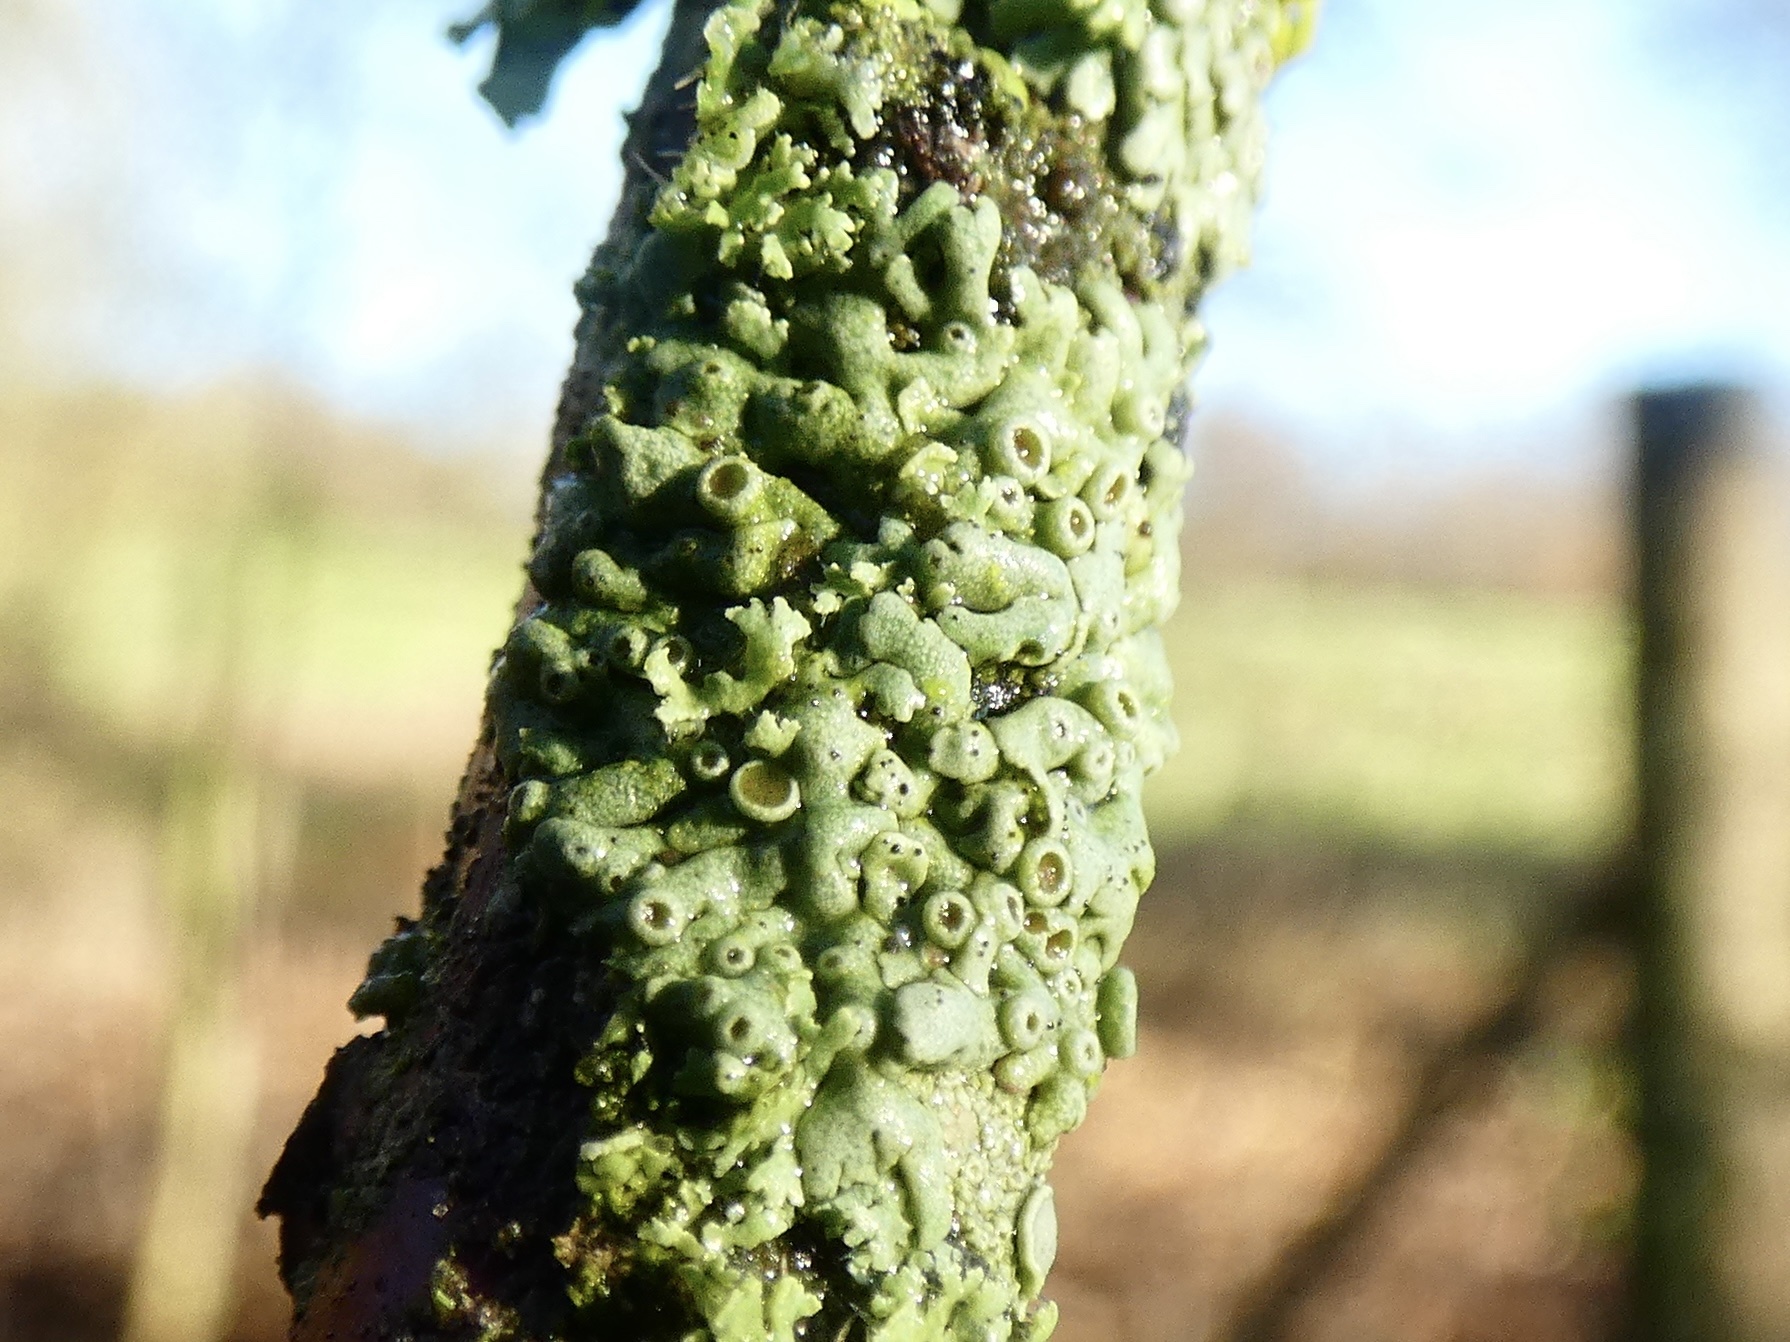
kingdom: Fungi
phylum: Ascomycota
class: Lecanoromycetes
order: Caliciales
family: Physciaceae
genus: Physcia
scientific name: Physcia aipolia
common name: Hoary rosette lichen
